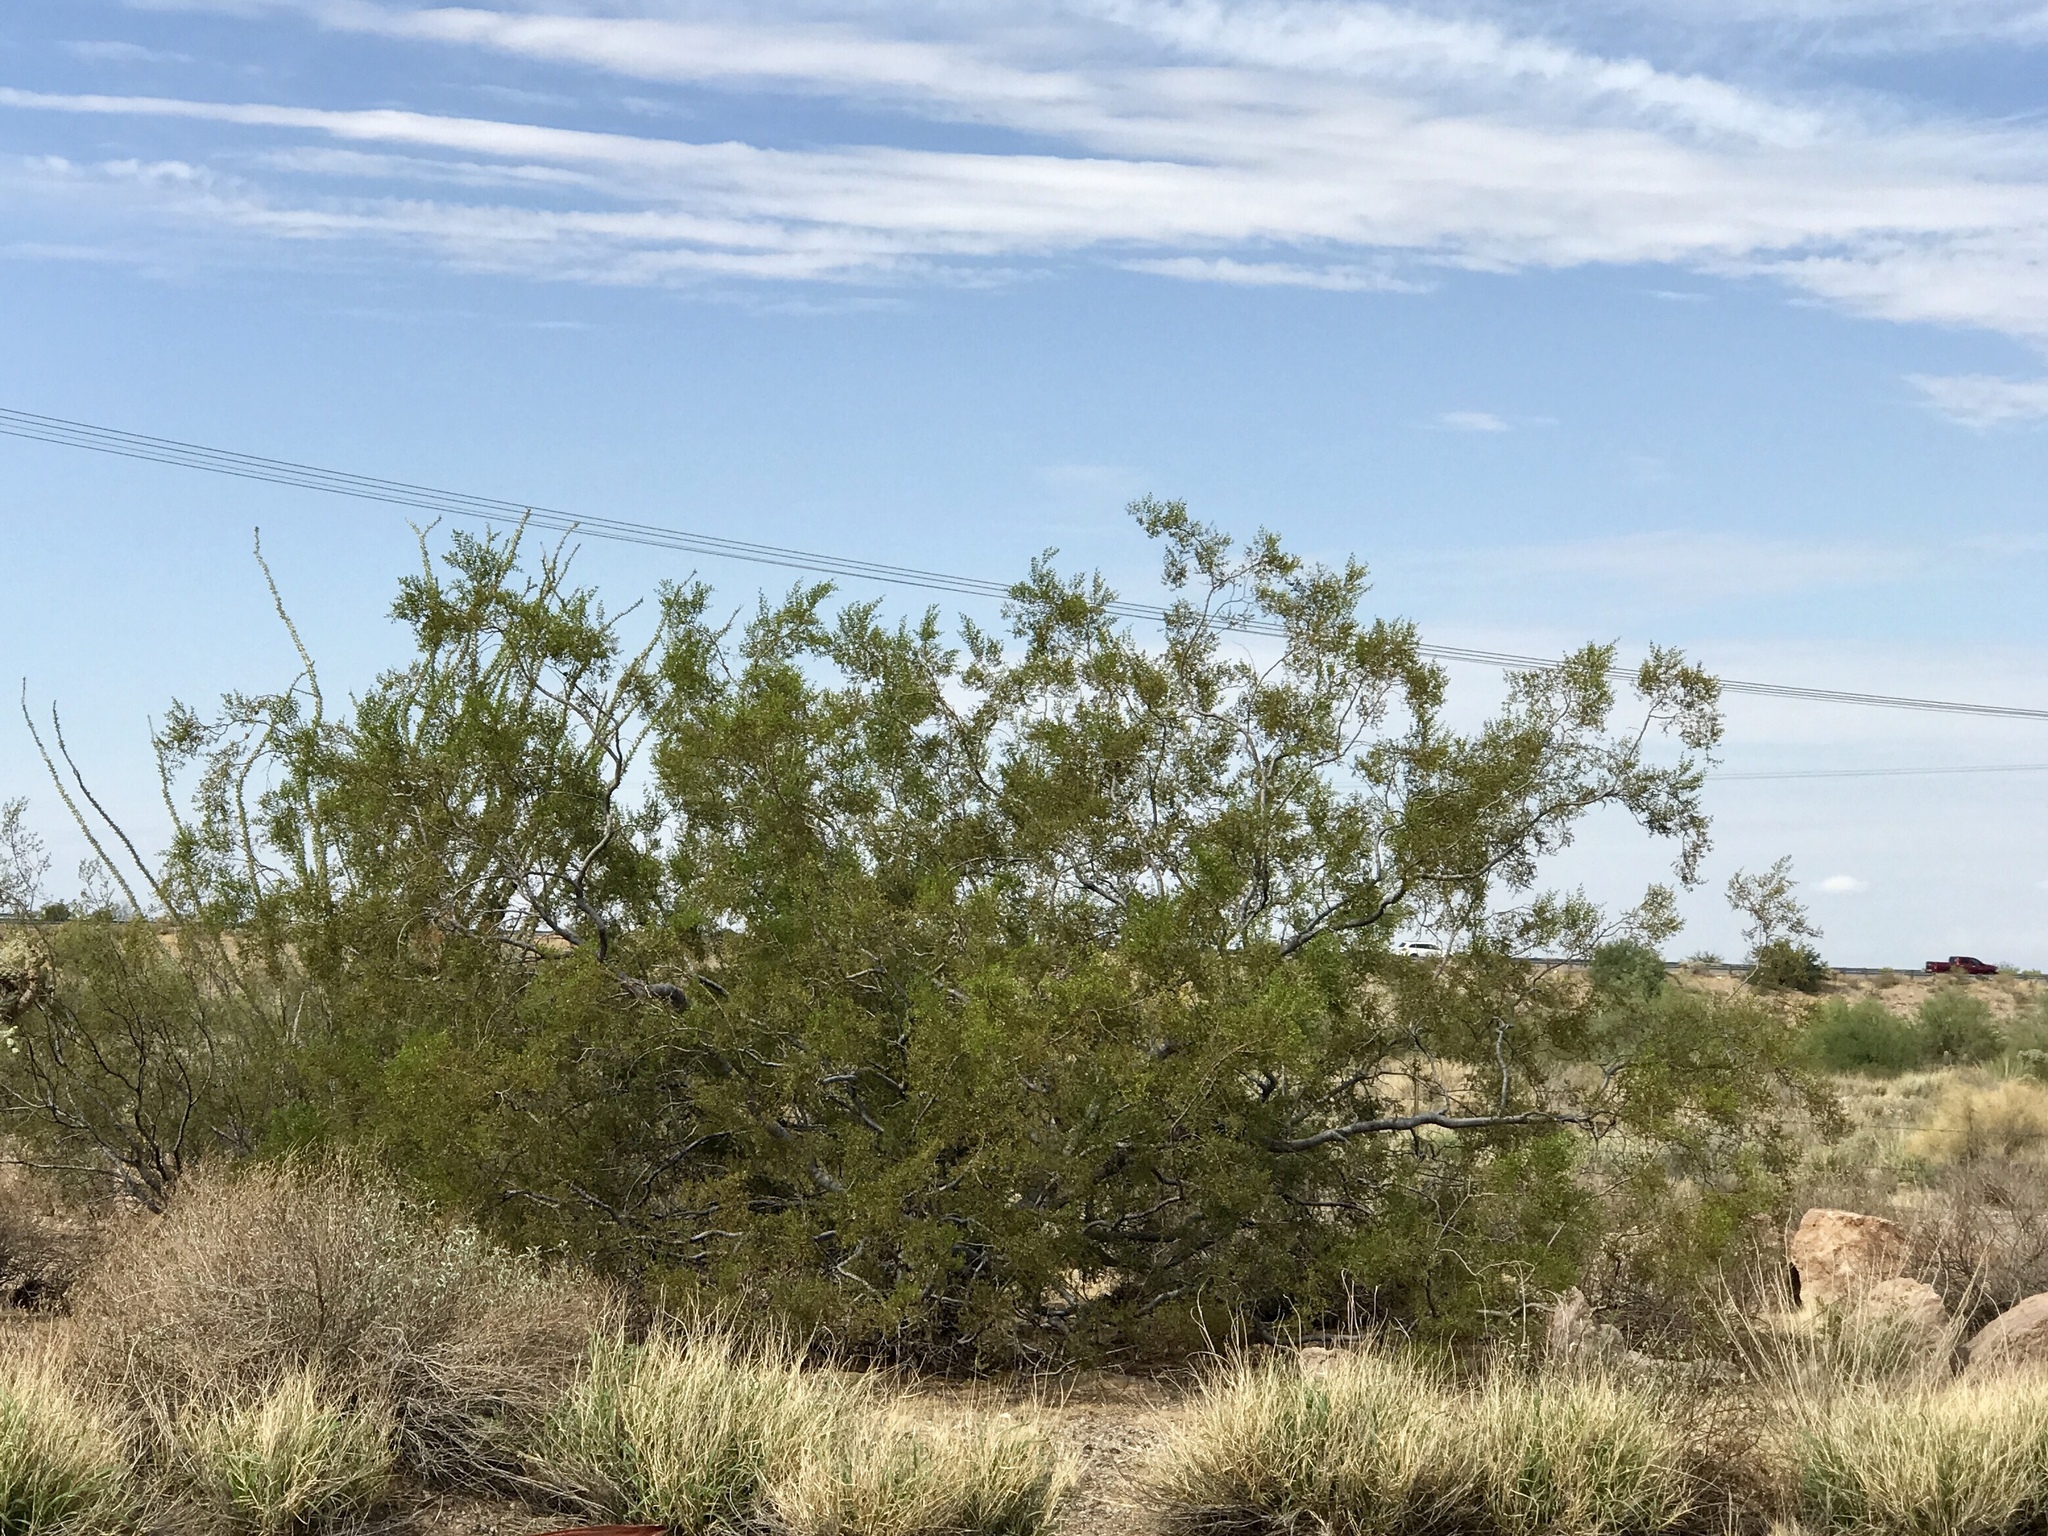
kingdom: Plantae
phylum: Tracheophyta
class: Magnoliopsida
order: Zygophyllales
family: Zygophyllaceae
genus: Larrea
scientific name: Larrea tridentata
